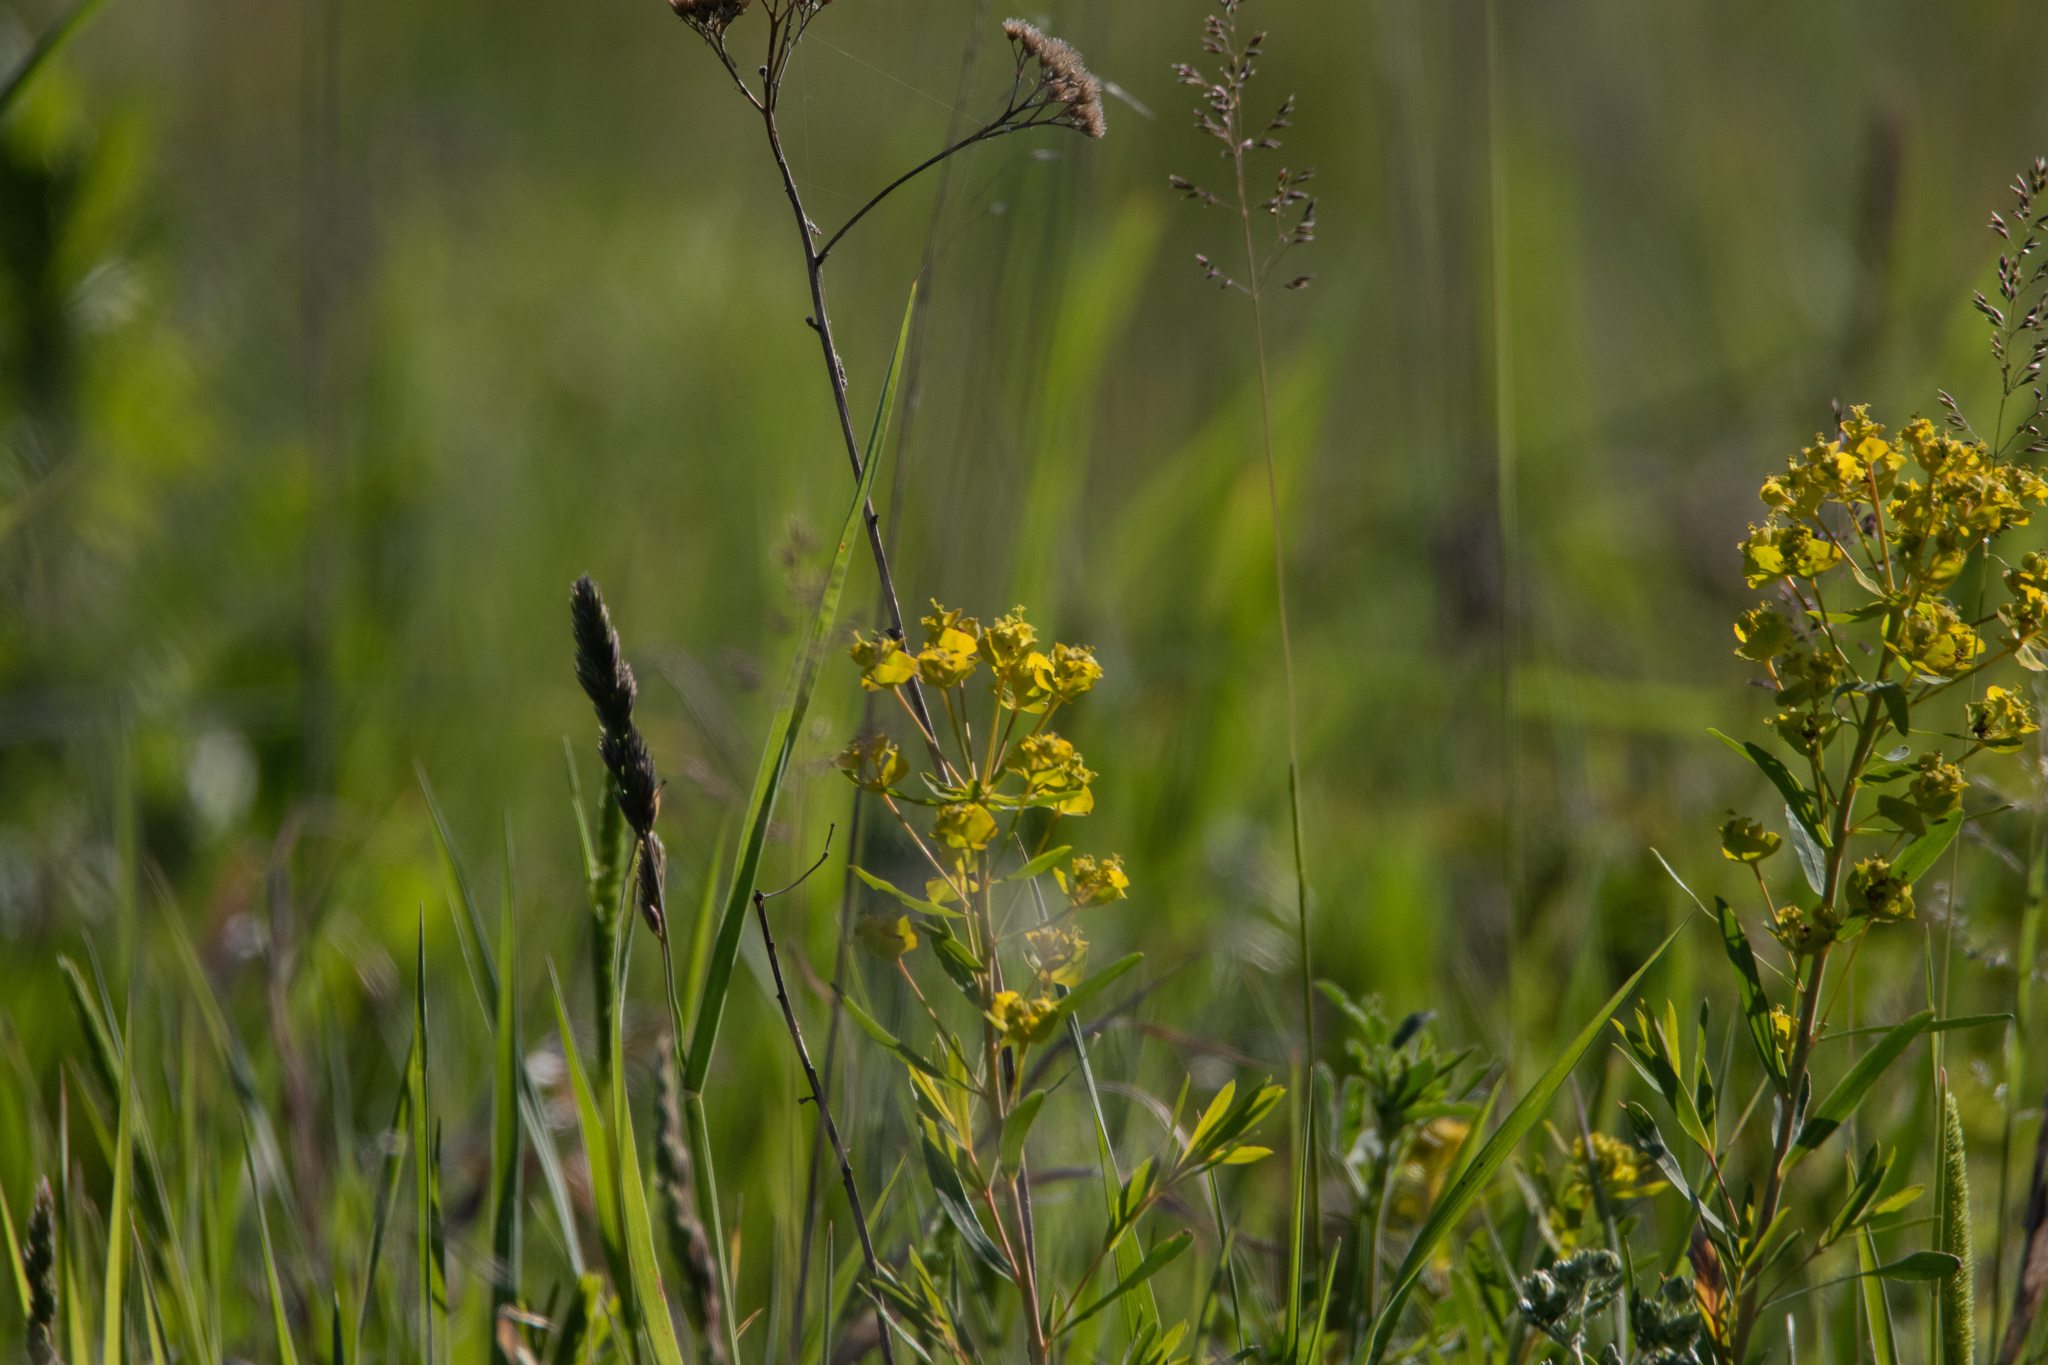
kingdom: Plantae
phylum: Tracheophyta
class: Magnoliopsida
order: Malpighiales
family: Euphorbiaceae
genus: Euphorbia
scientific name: Euphorbia virgata
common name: Leafy spurge
